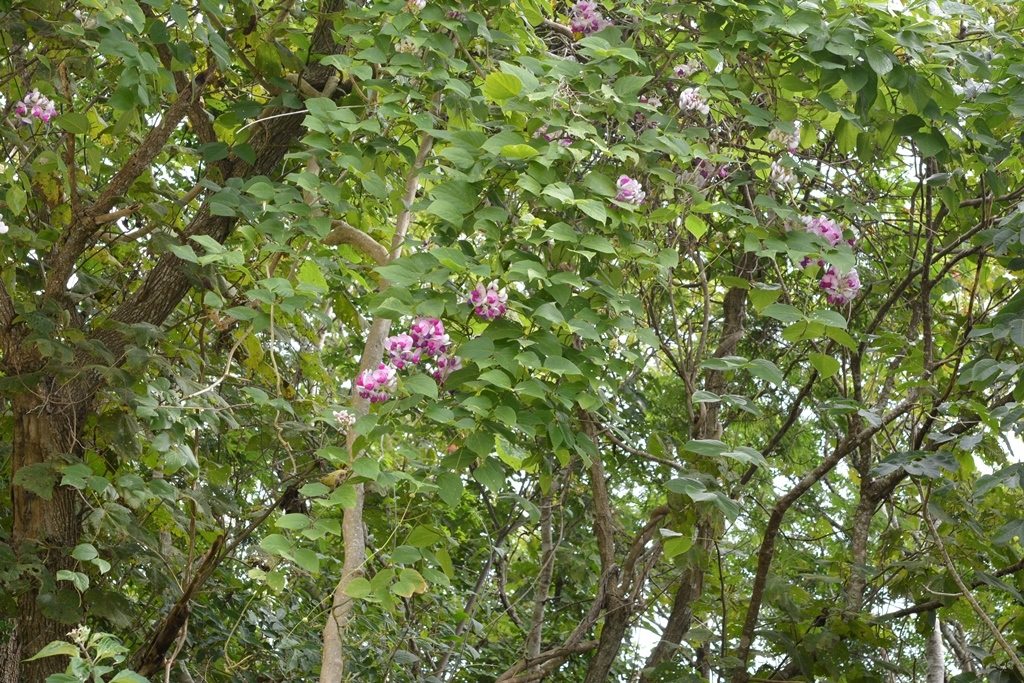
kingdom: Plantae
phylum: Tracheophyta
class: Magnoliopsida
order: Fabales
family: Fabaceae
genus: Ramirezella
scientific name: Ramirezella penduliflora
